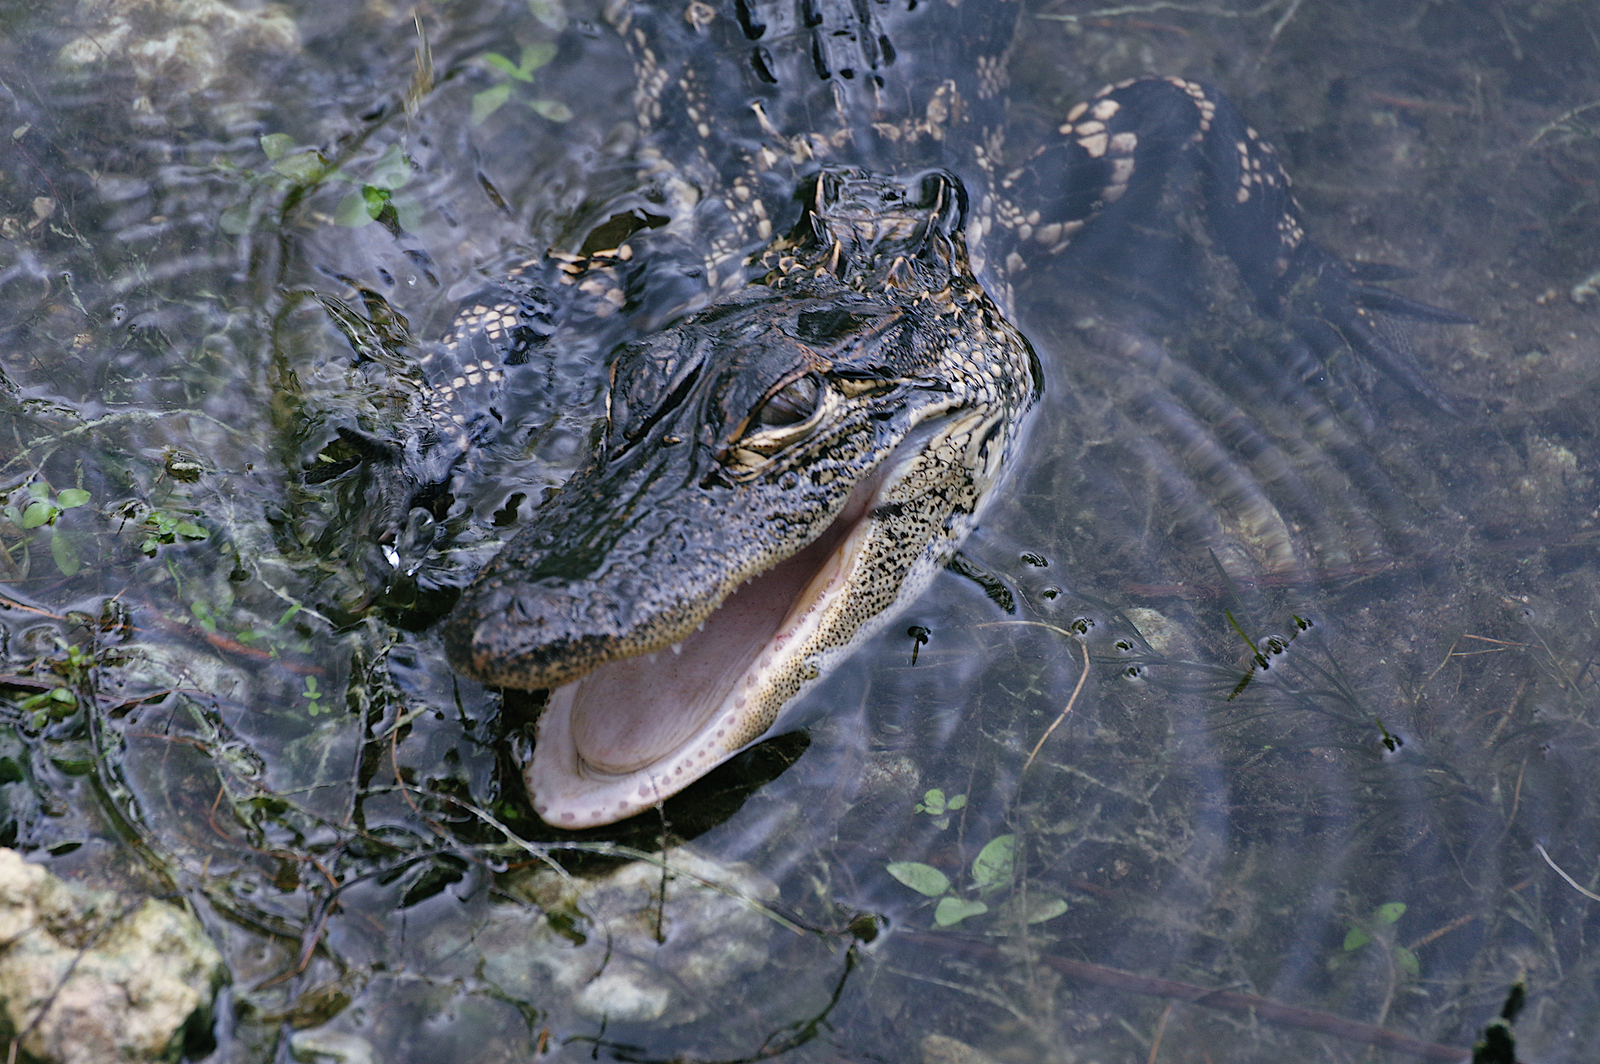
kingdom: Animalia
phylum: Chordata
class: Crocodylia
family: Alligatoridae
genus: Alligator
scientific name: Alligator mississippiensis
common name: American alligator
